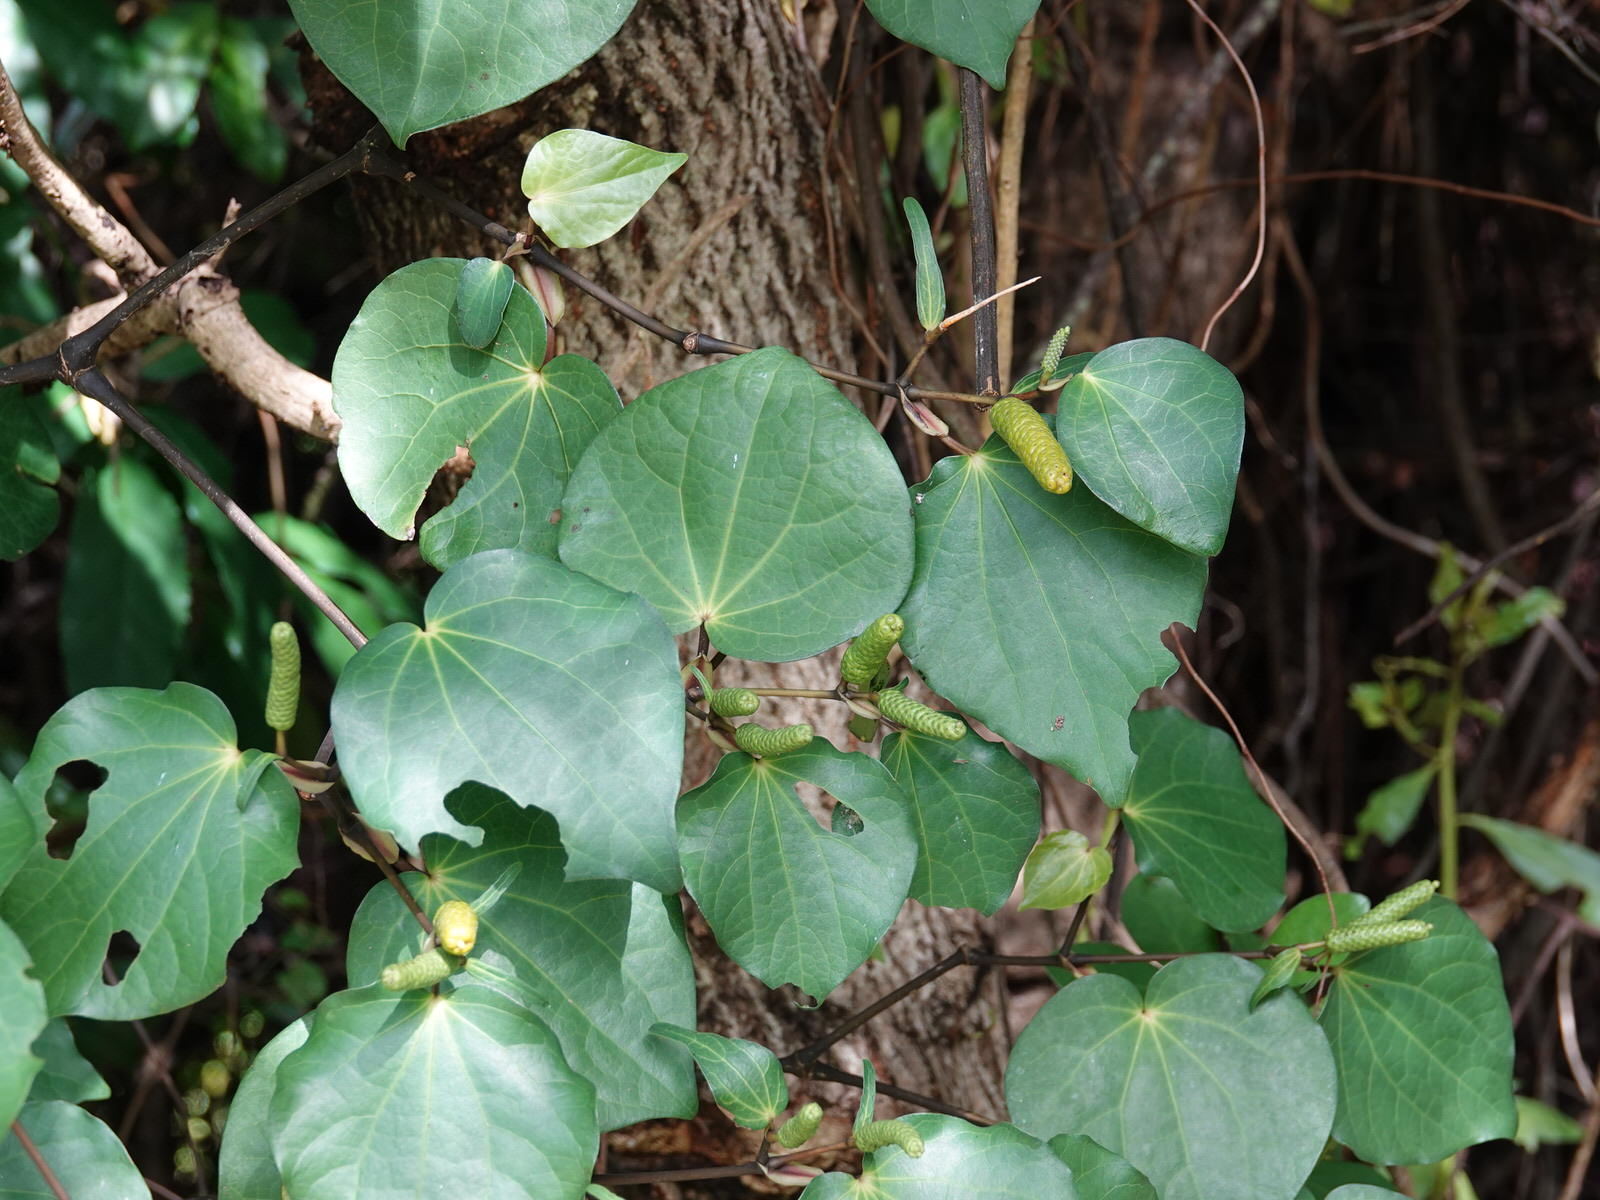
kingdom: Plantae
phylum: Tracheophyta
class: Magnoliopsida
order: Piperales
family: Piperaceae
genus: Macropiper
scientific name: Macropiper excelsum
